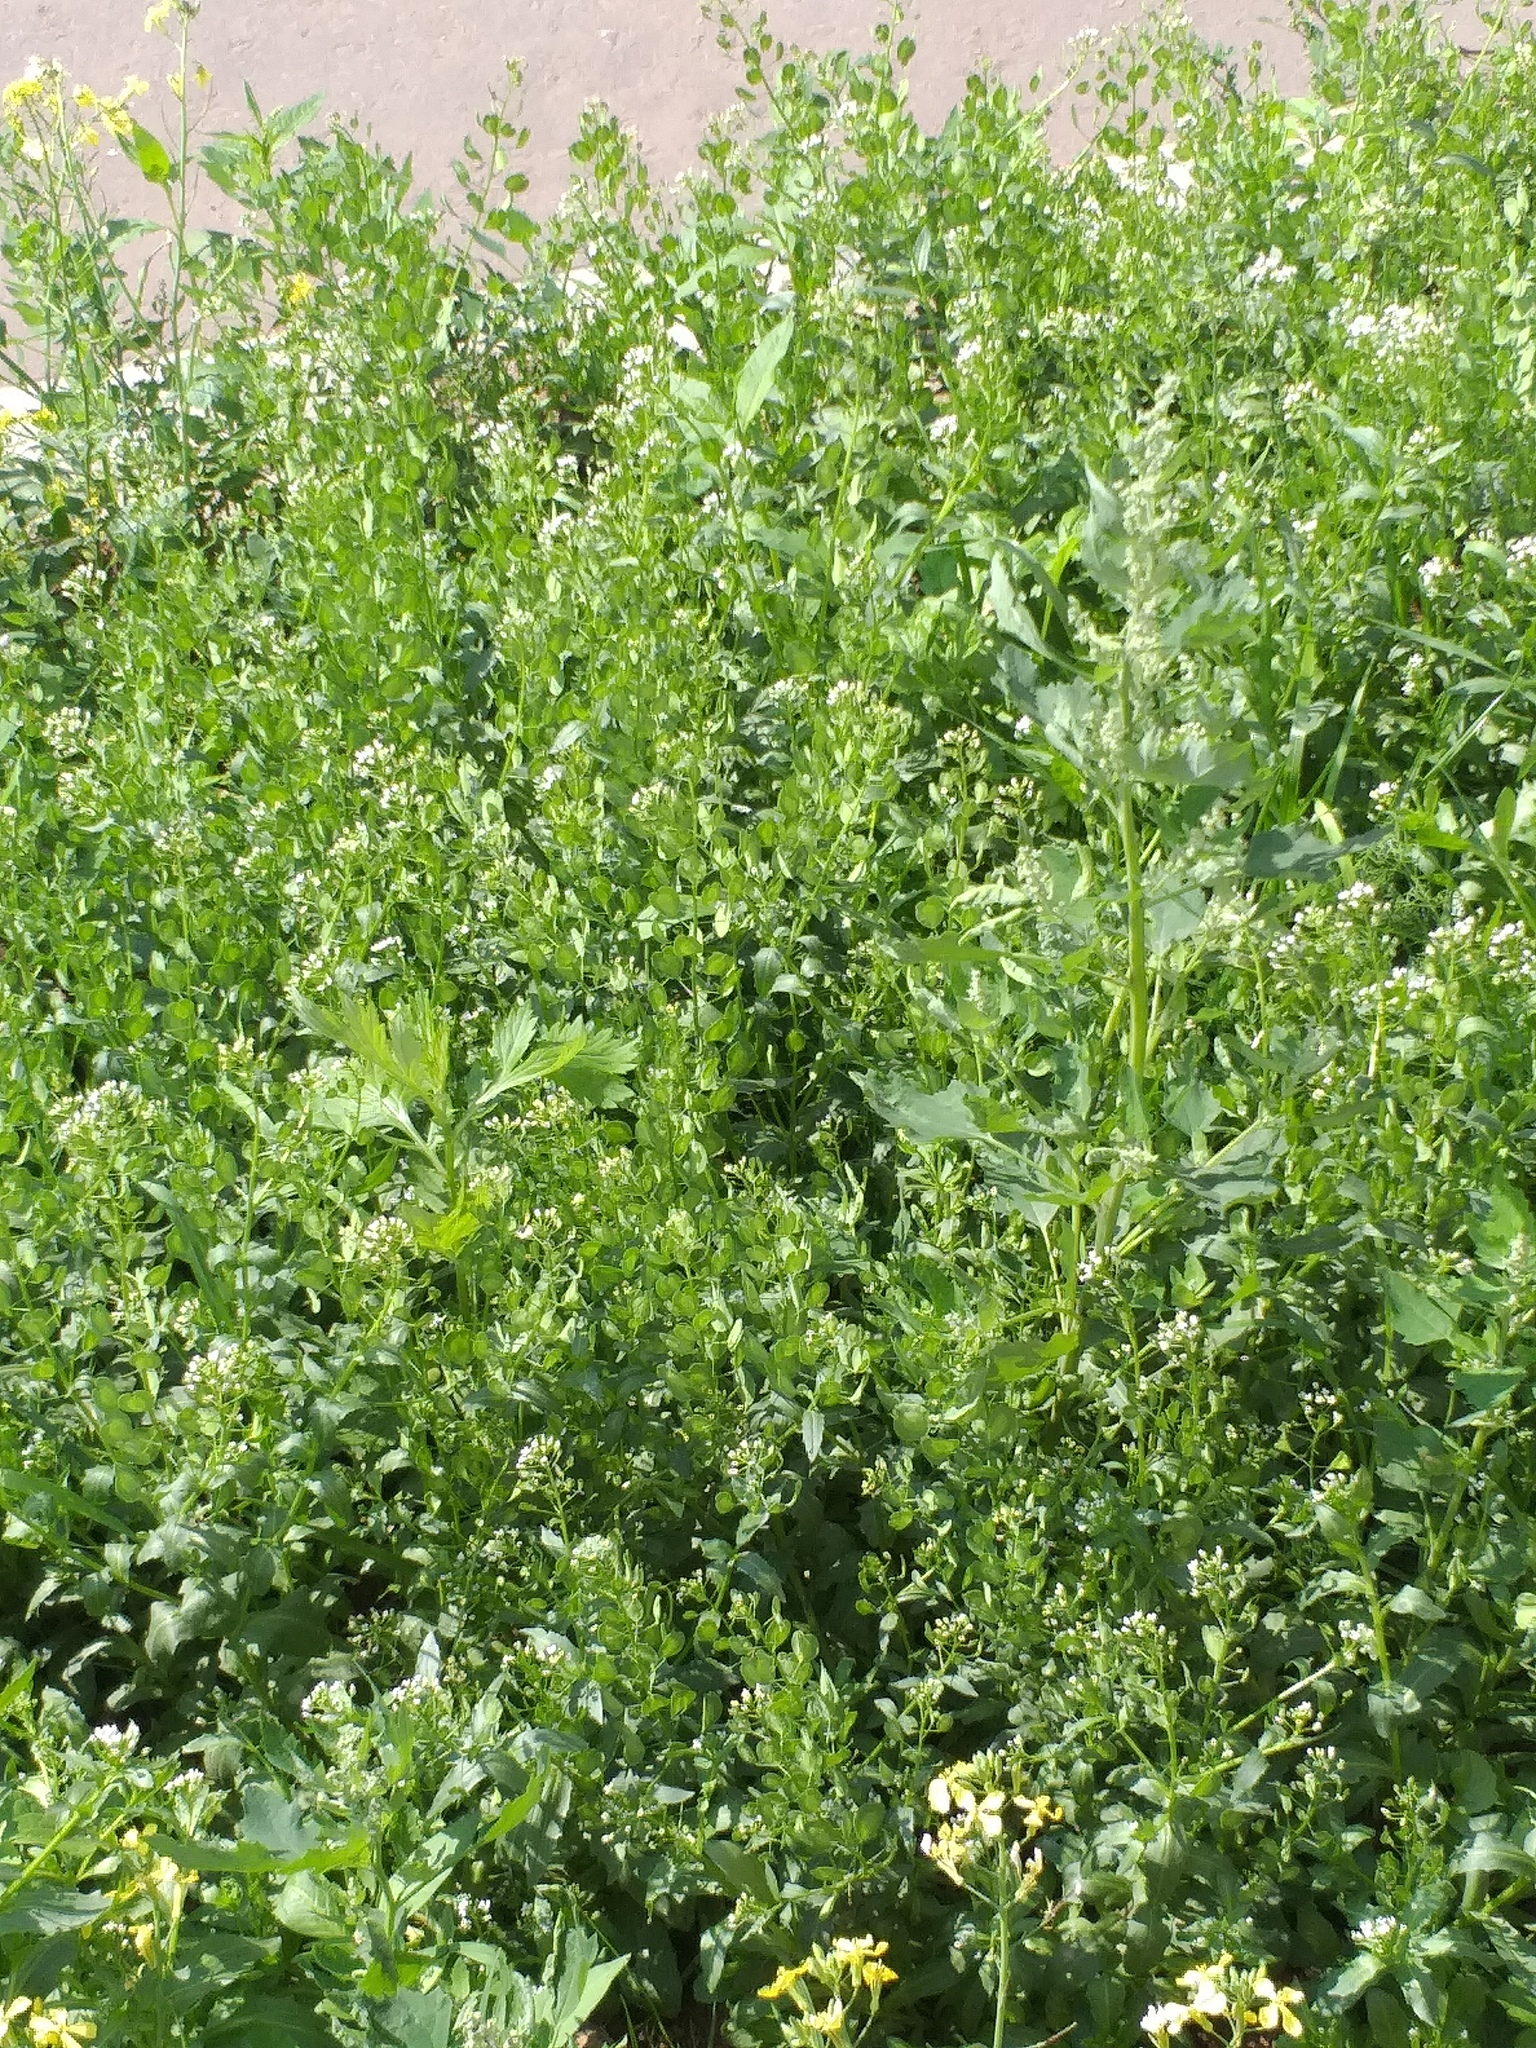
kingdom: Plantae
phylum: Tracheophyta
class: Magnoliopsida
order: Brassicales
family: Brassicaceae
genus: Thlaspi
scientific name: Thlaspi arvense
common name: Field pennycress
